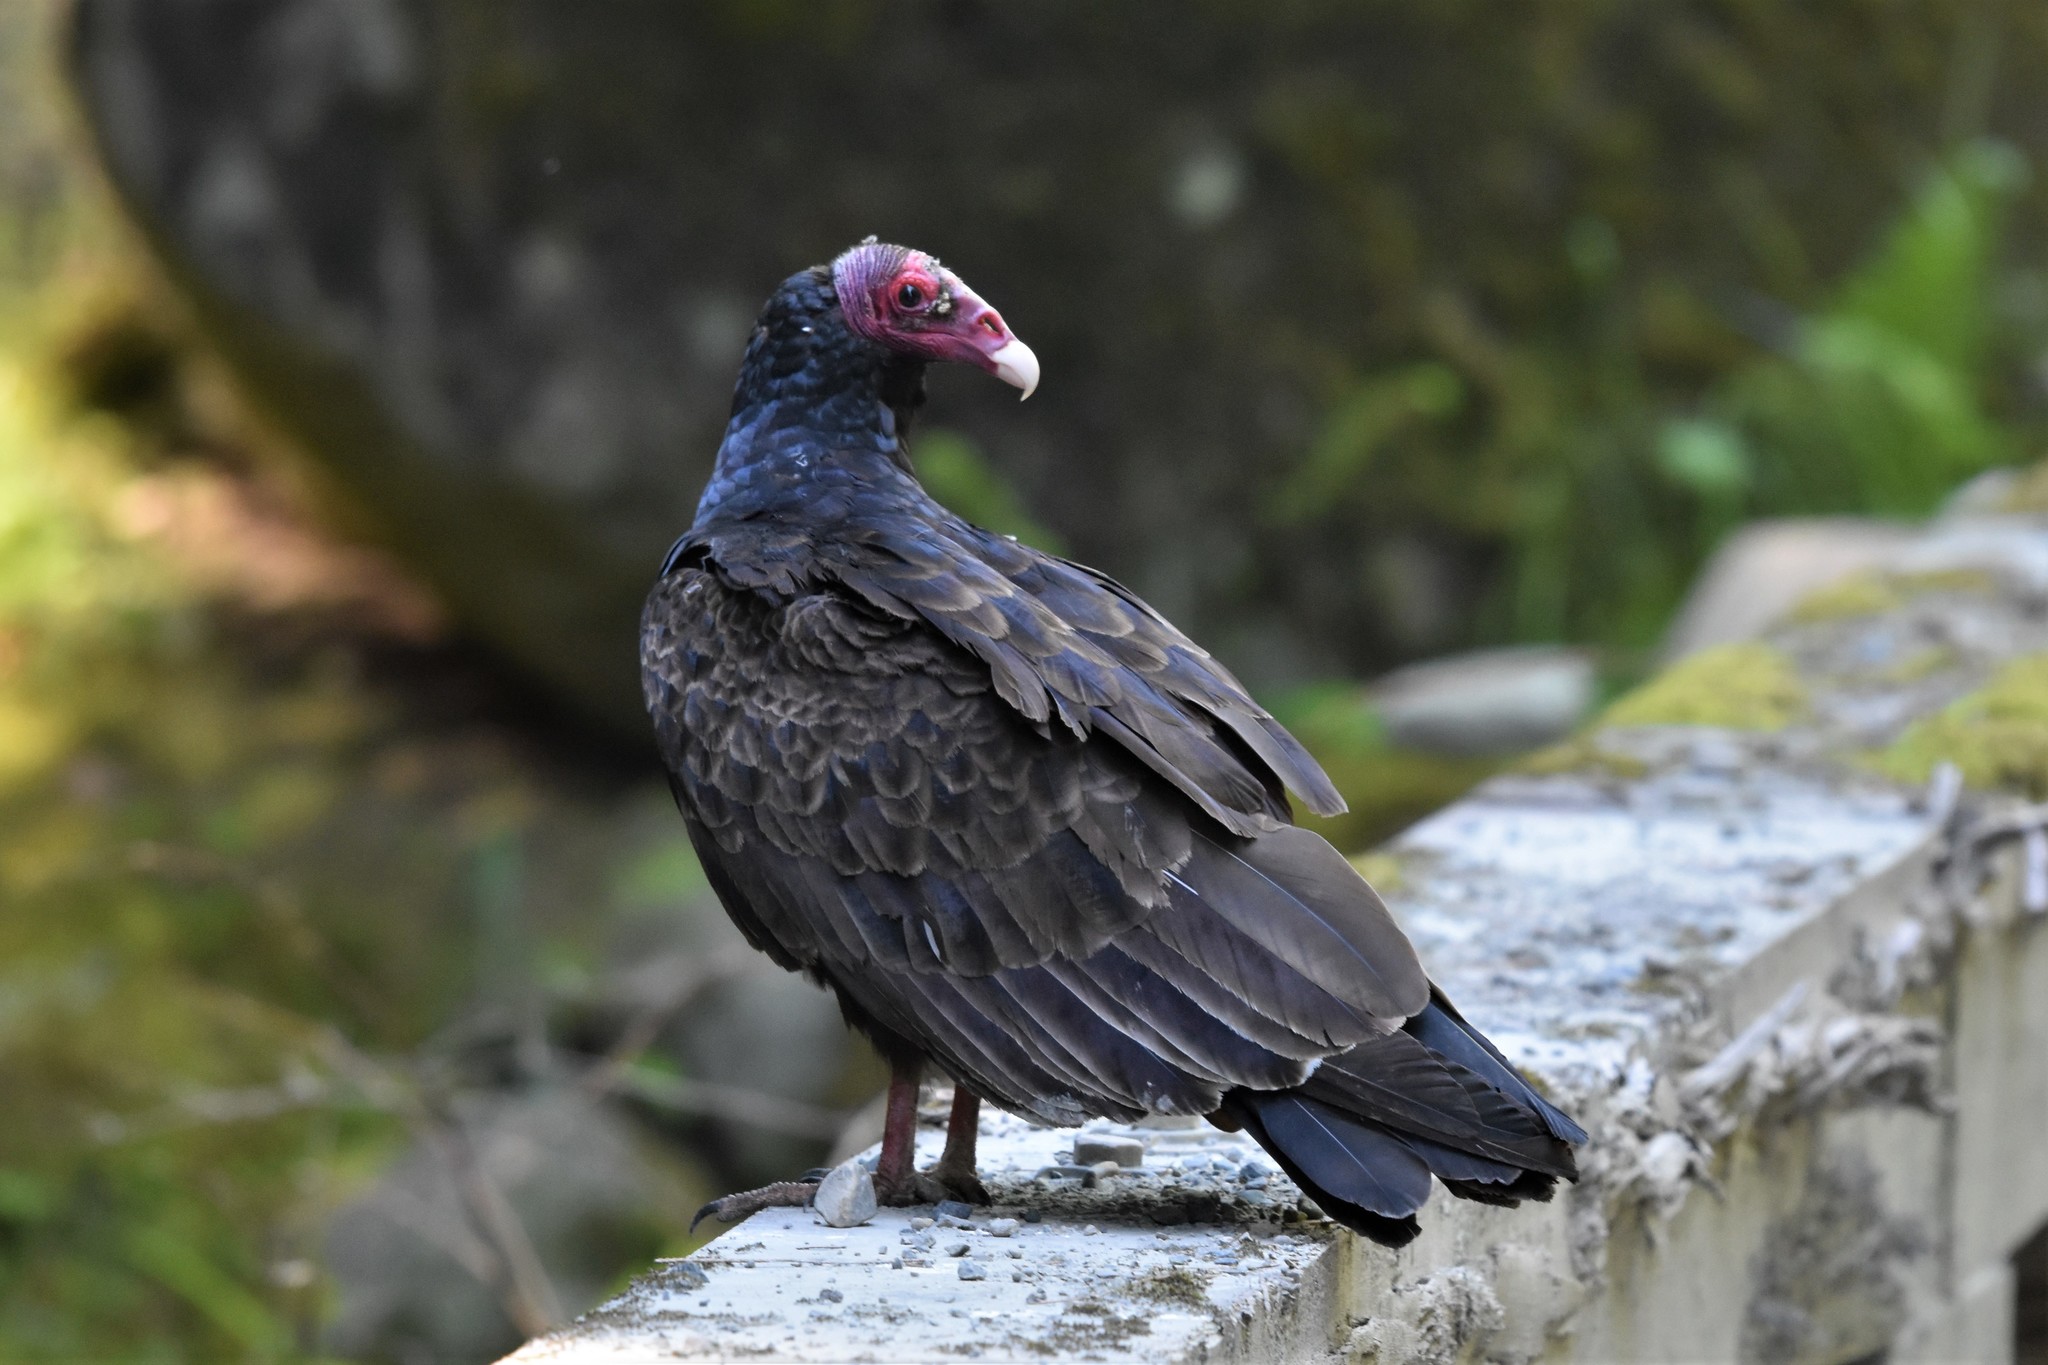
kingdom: Animalia
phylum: Chordata
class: Aves
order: Accipitriformes
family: Cathartidae
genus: Cathartes
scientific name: Cathartes aura
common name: Turkey vulture
